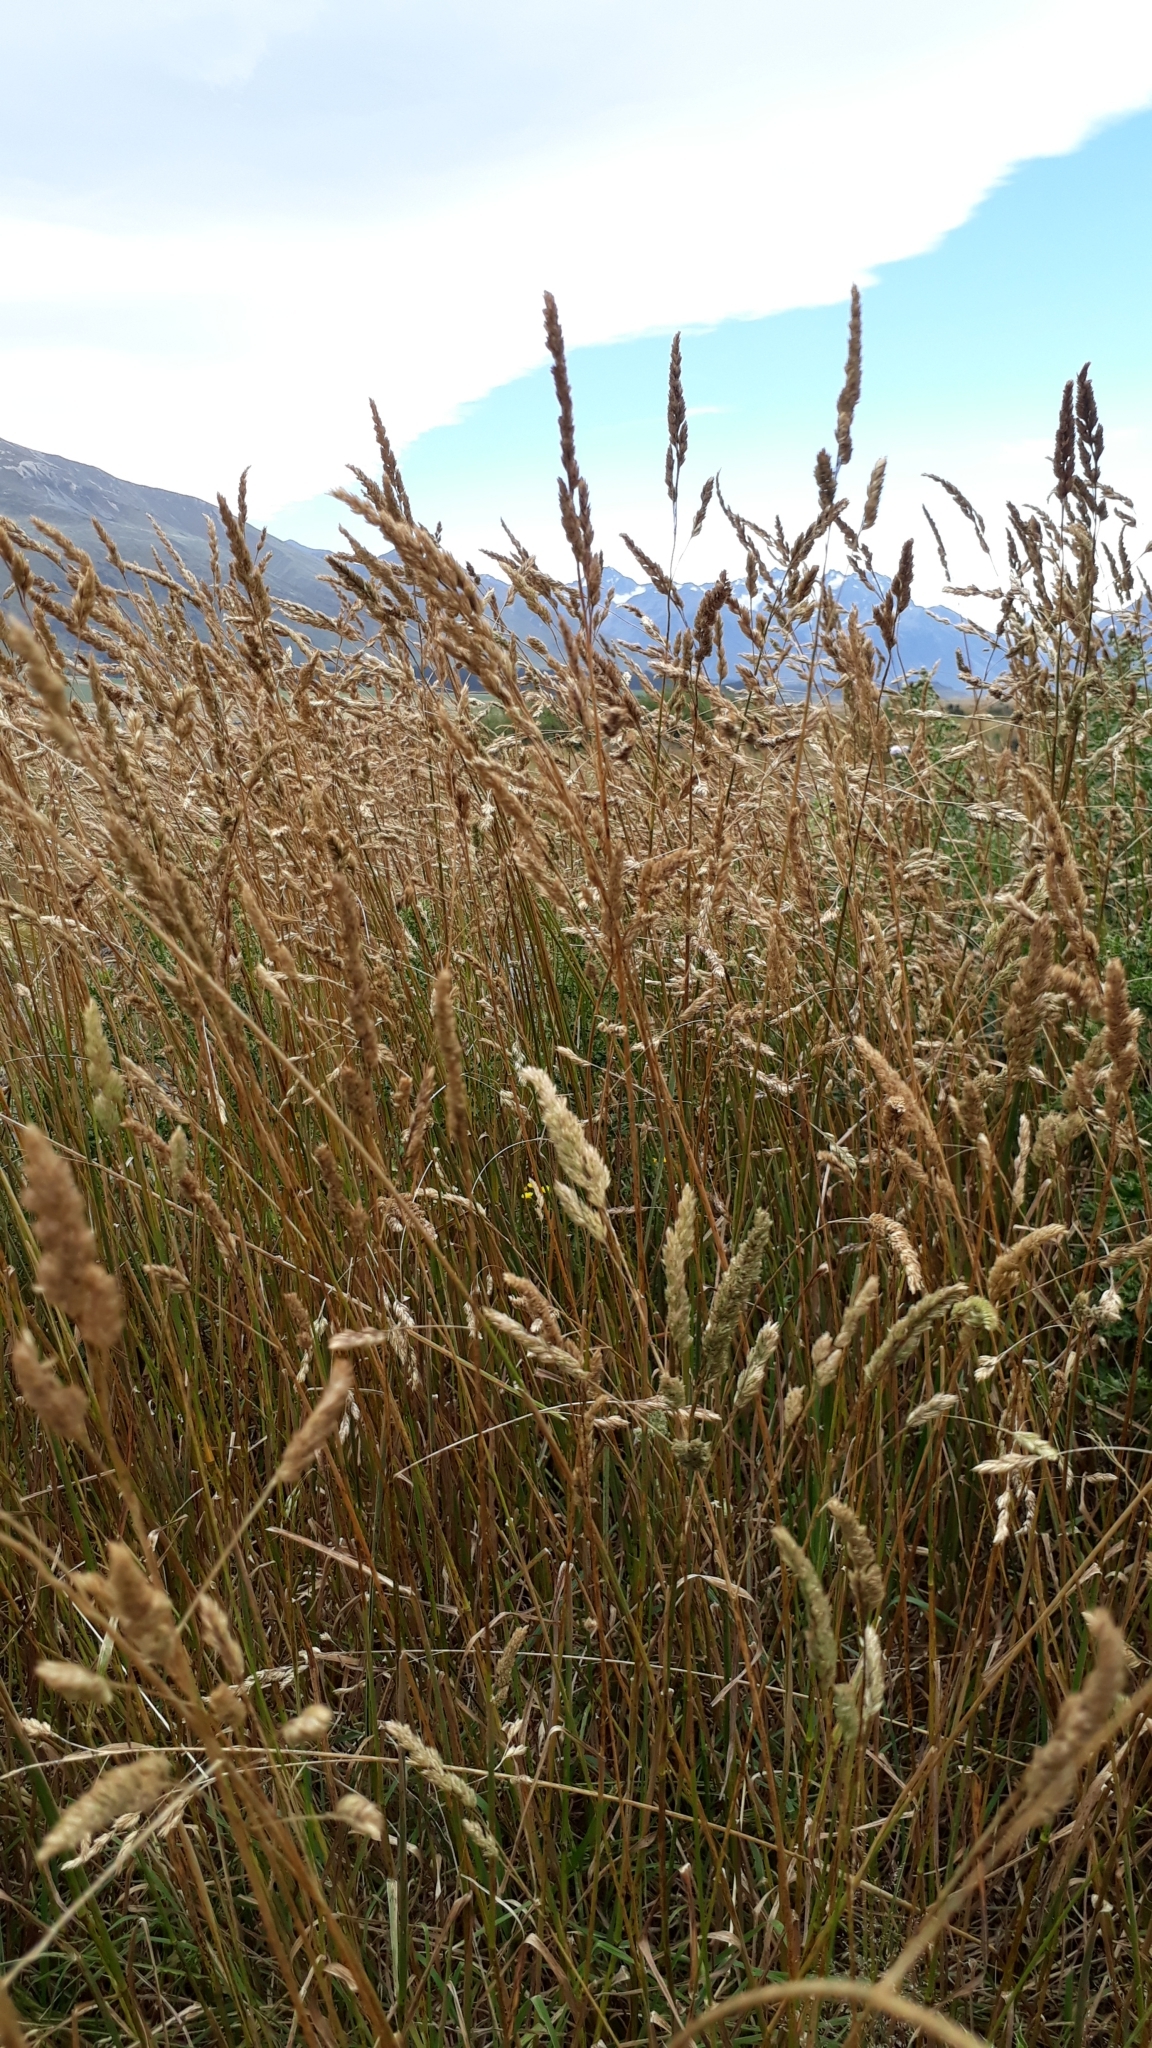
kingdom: Plantae
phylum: Tracheophyta
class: Liliopsida
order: Poales
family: Poaceae
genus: Dactylis
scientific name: Dactylis glomerata
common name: Orchardgrass
